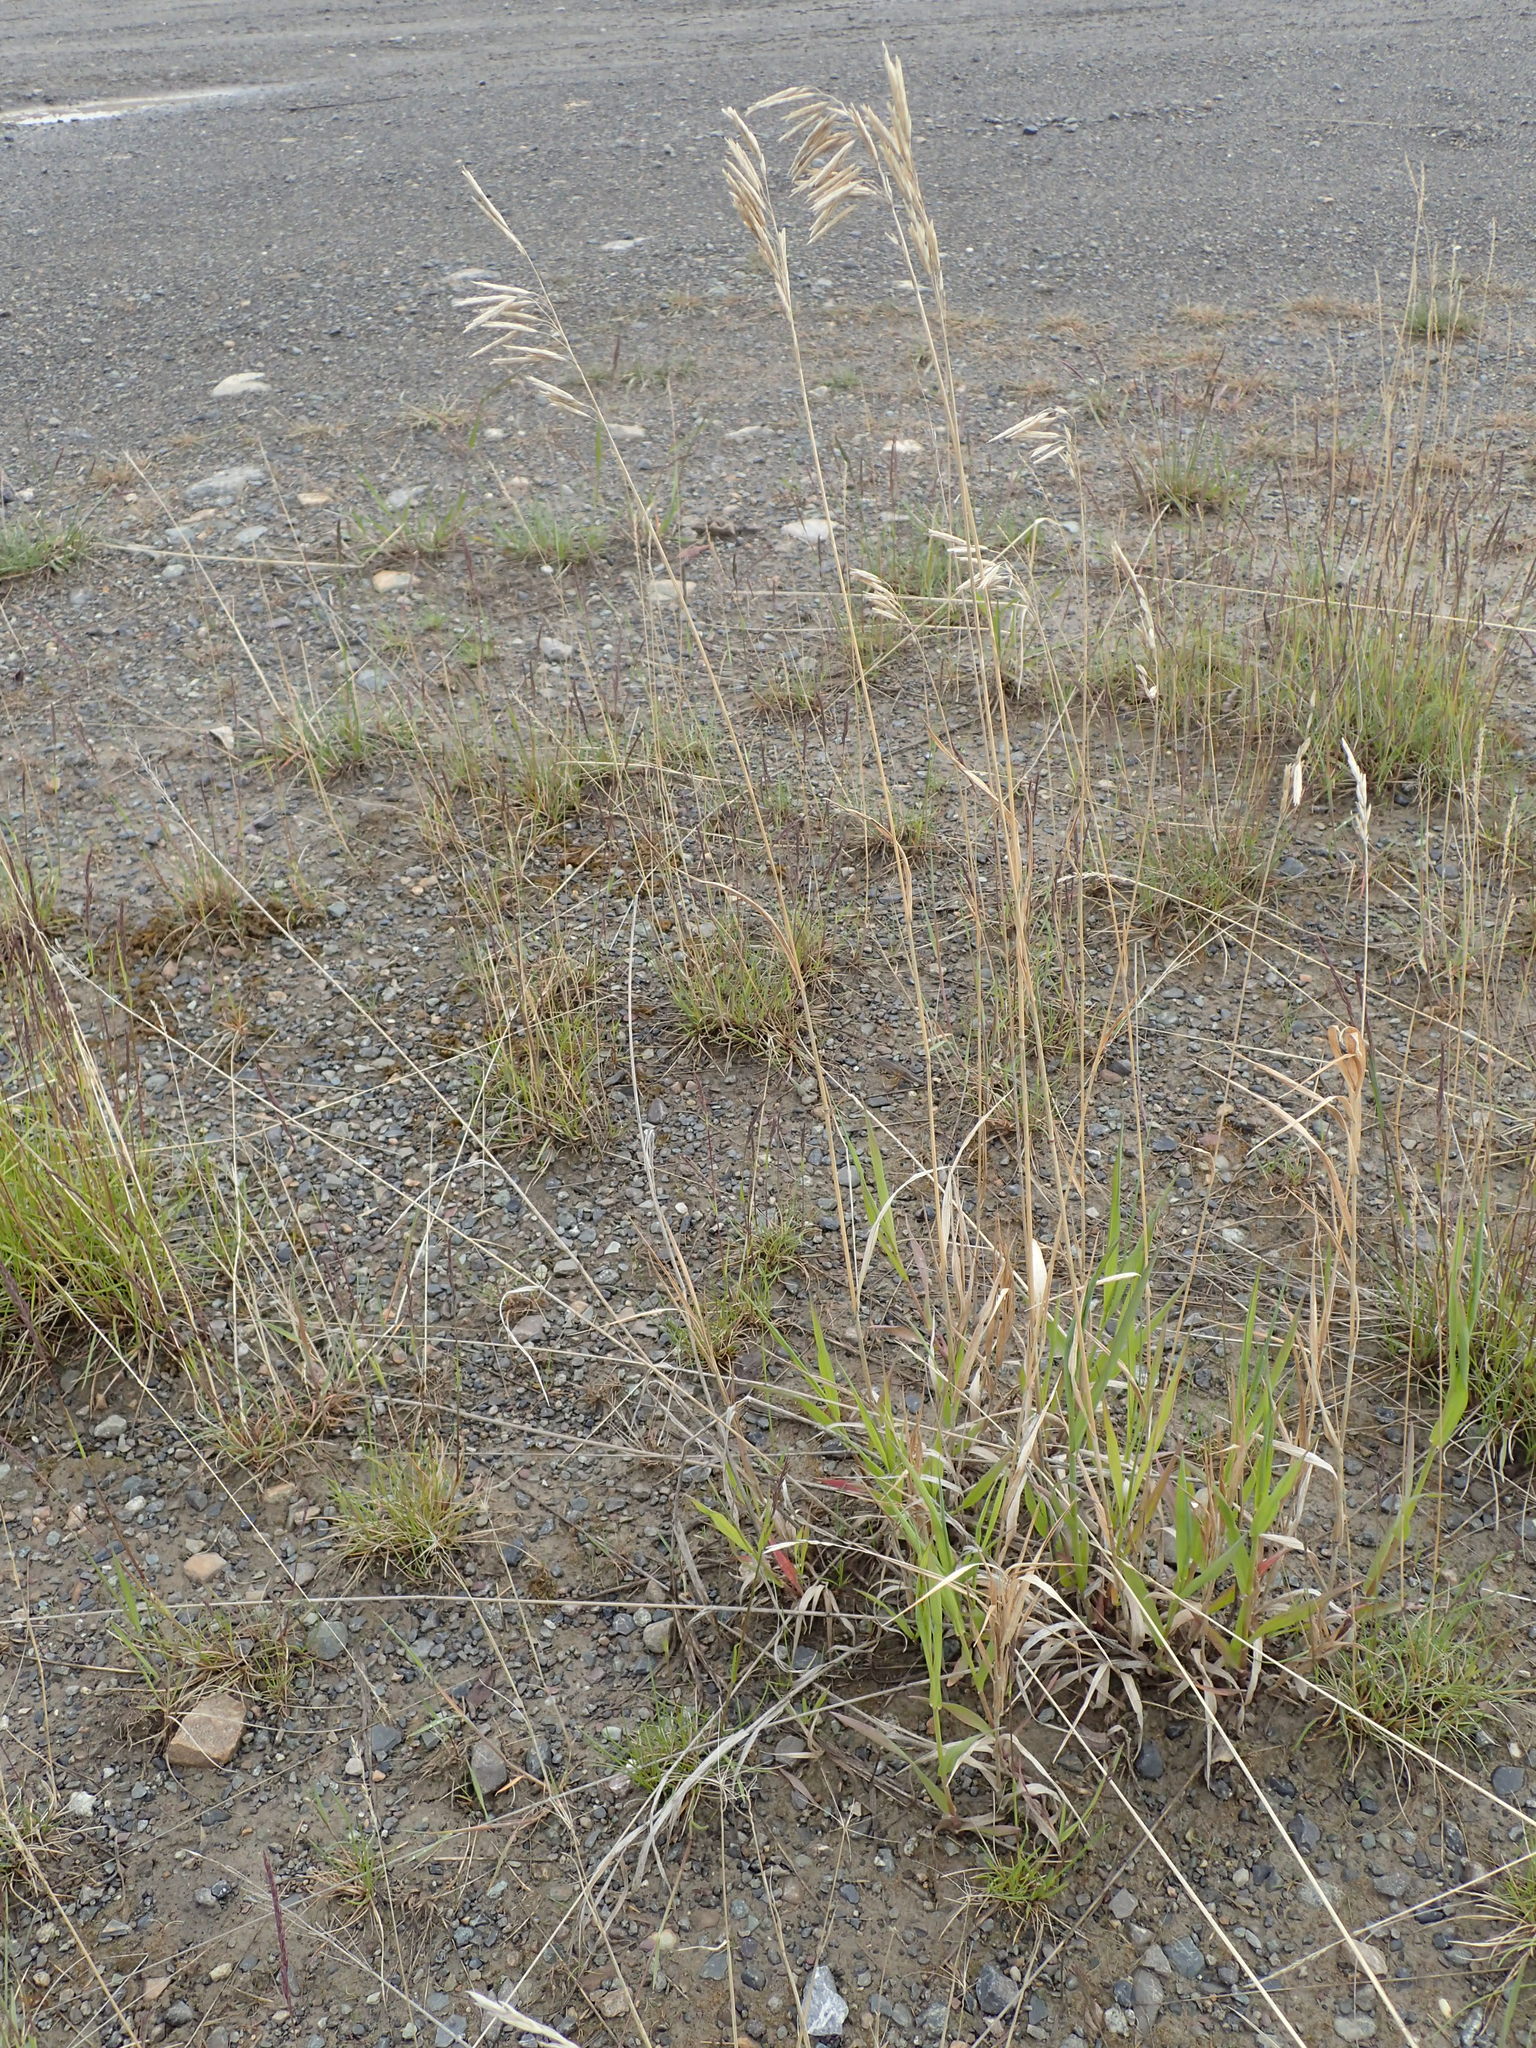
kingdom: Plantae
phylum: Tracheophyta
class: Liliopsida
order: Poales
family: Poaceae
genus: Bromus
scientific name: Bromus inermis
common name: Smooth brome
